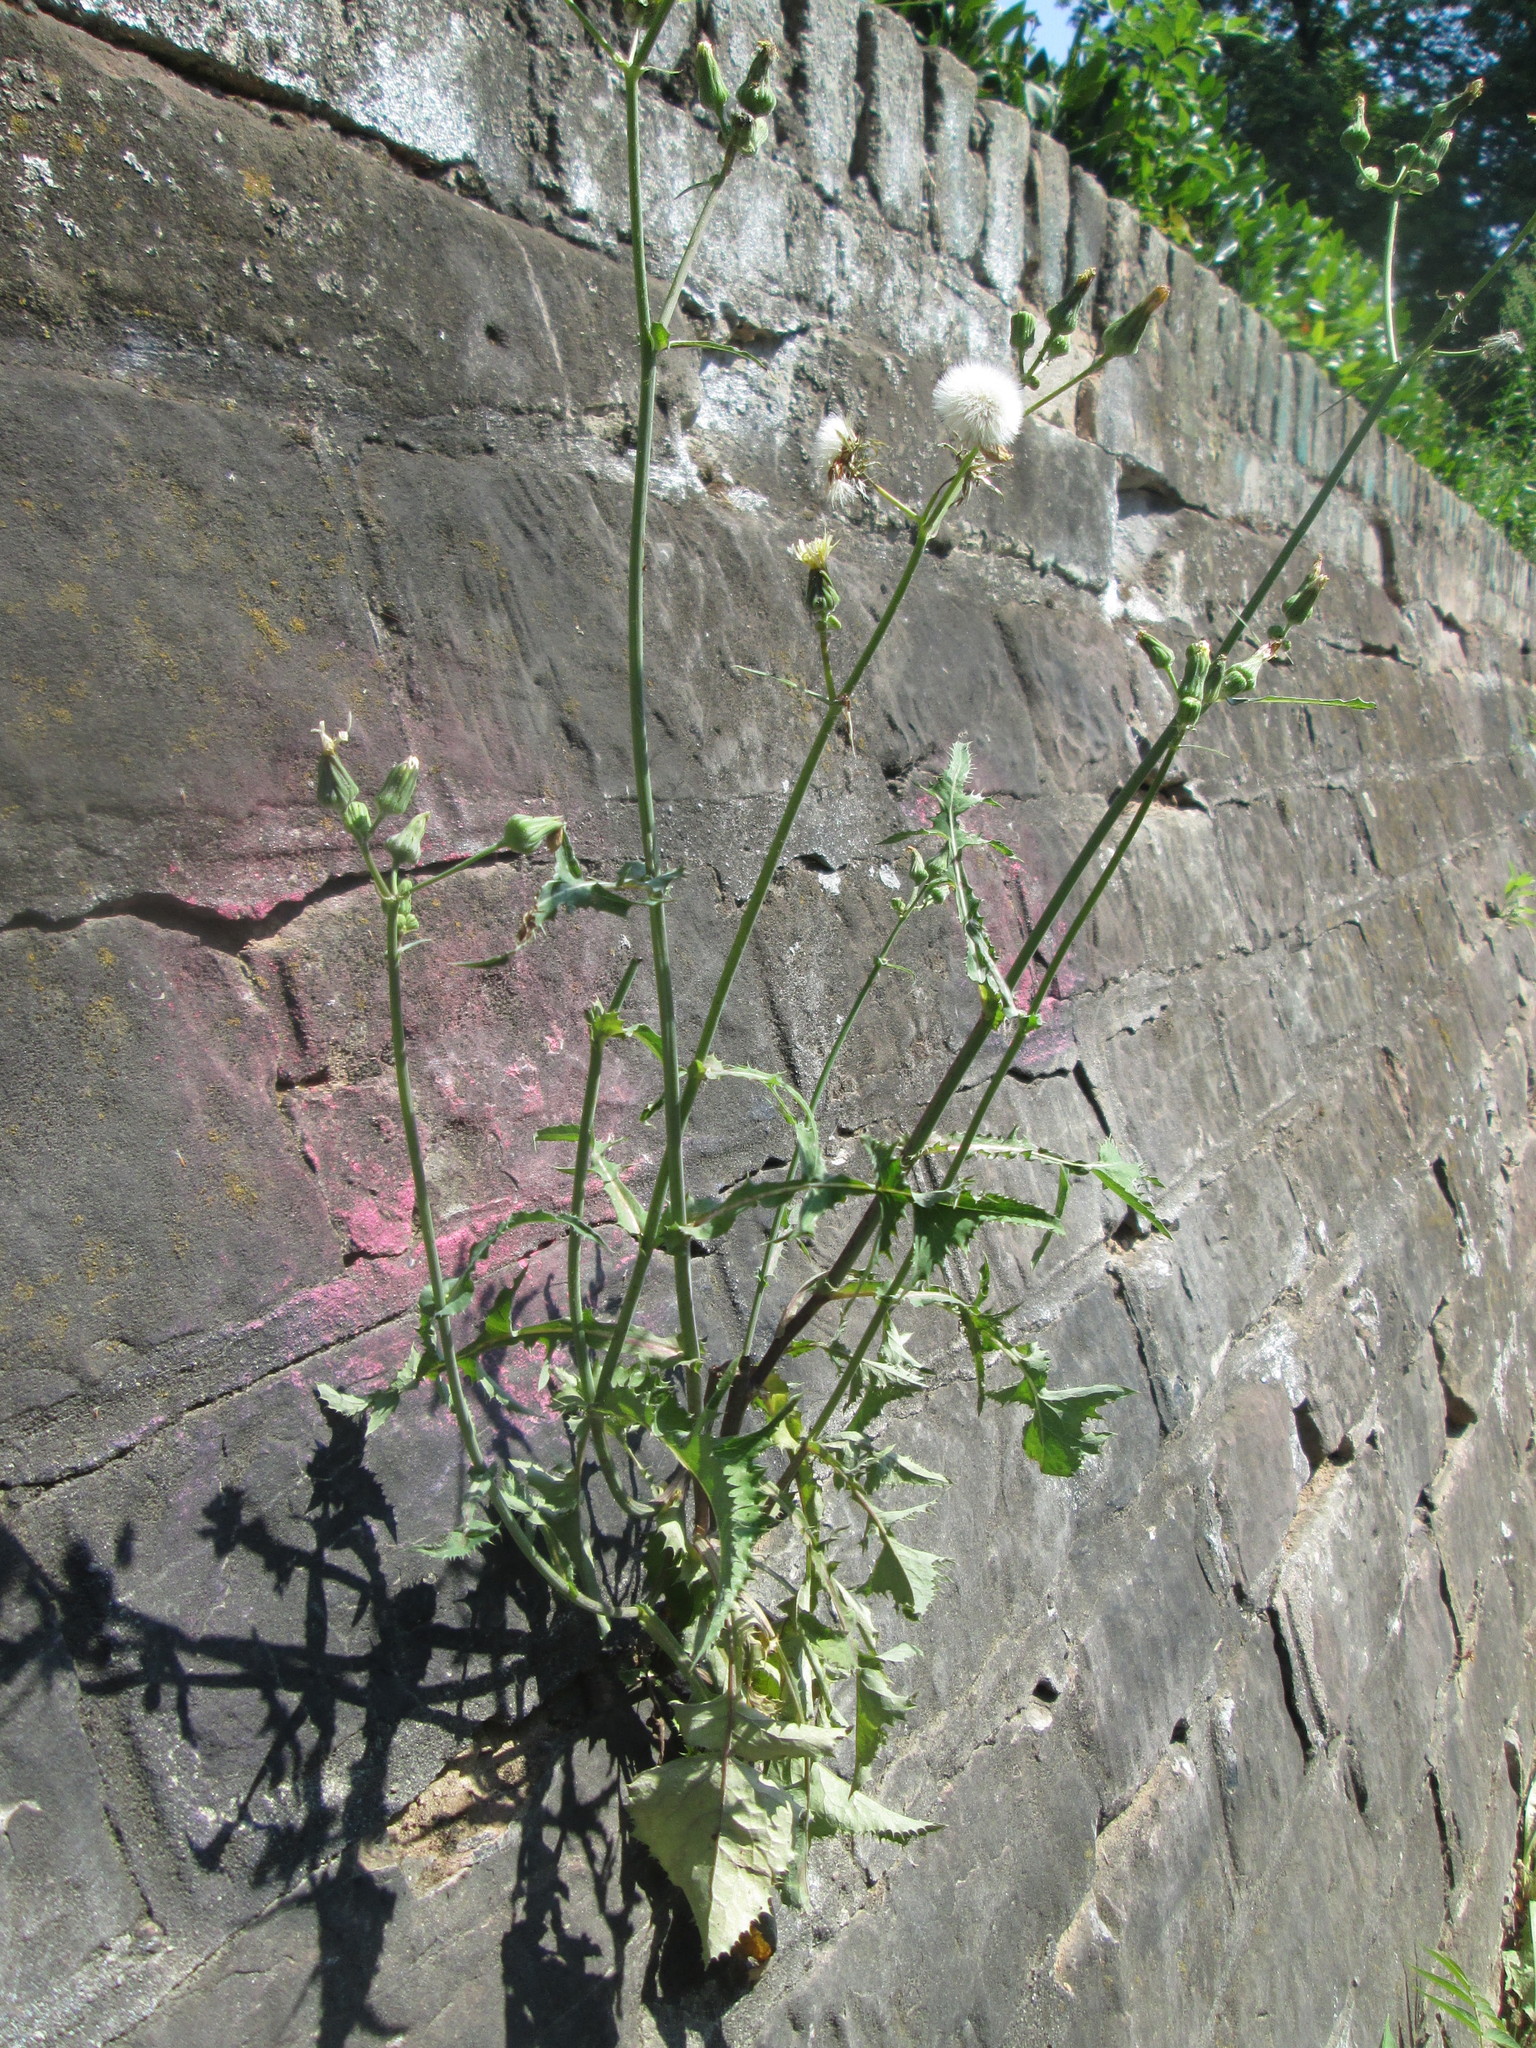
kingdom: Plantae
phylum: Tracheophyta
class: Magnoliopsida
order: Asterales
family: Asteraceae
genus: Sonchus
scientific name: Sonchus oleraceus
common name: Common sowthistle
